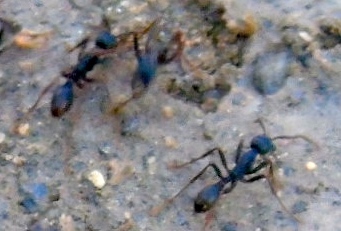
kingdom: Animalia
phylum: Arthropoda
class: Insecta
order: Hymenoptera
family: Formicidae
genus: Eciton
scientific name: Eciton burchellii
